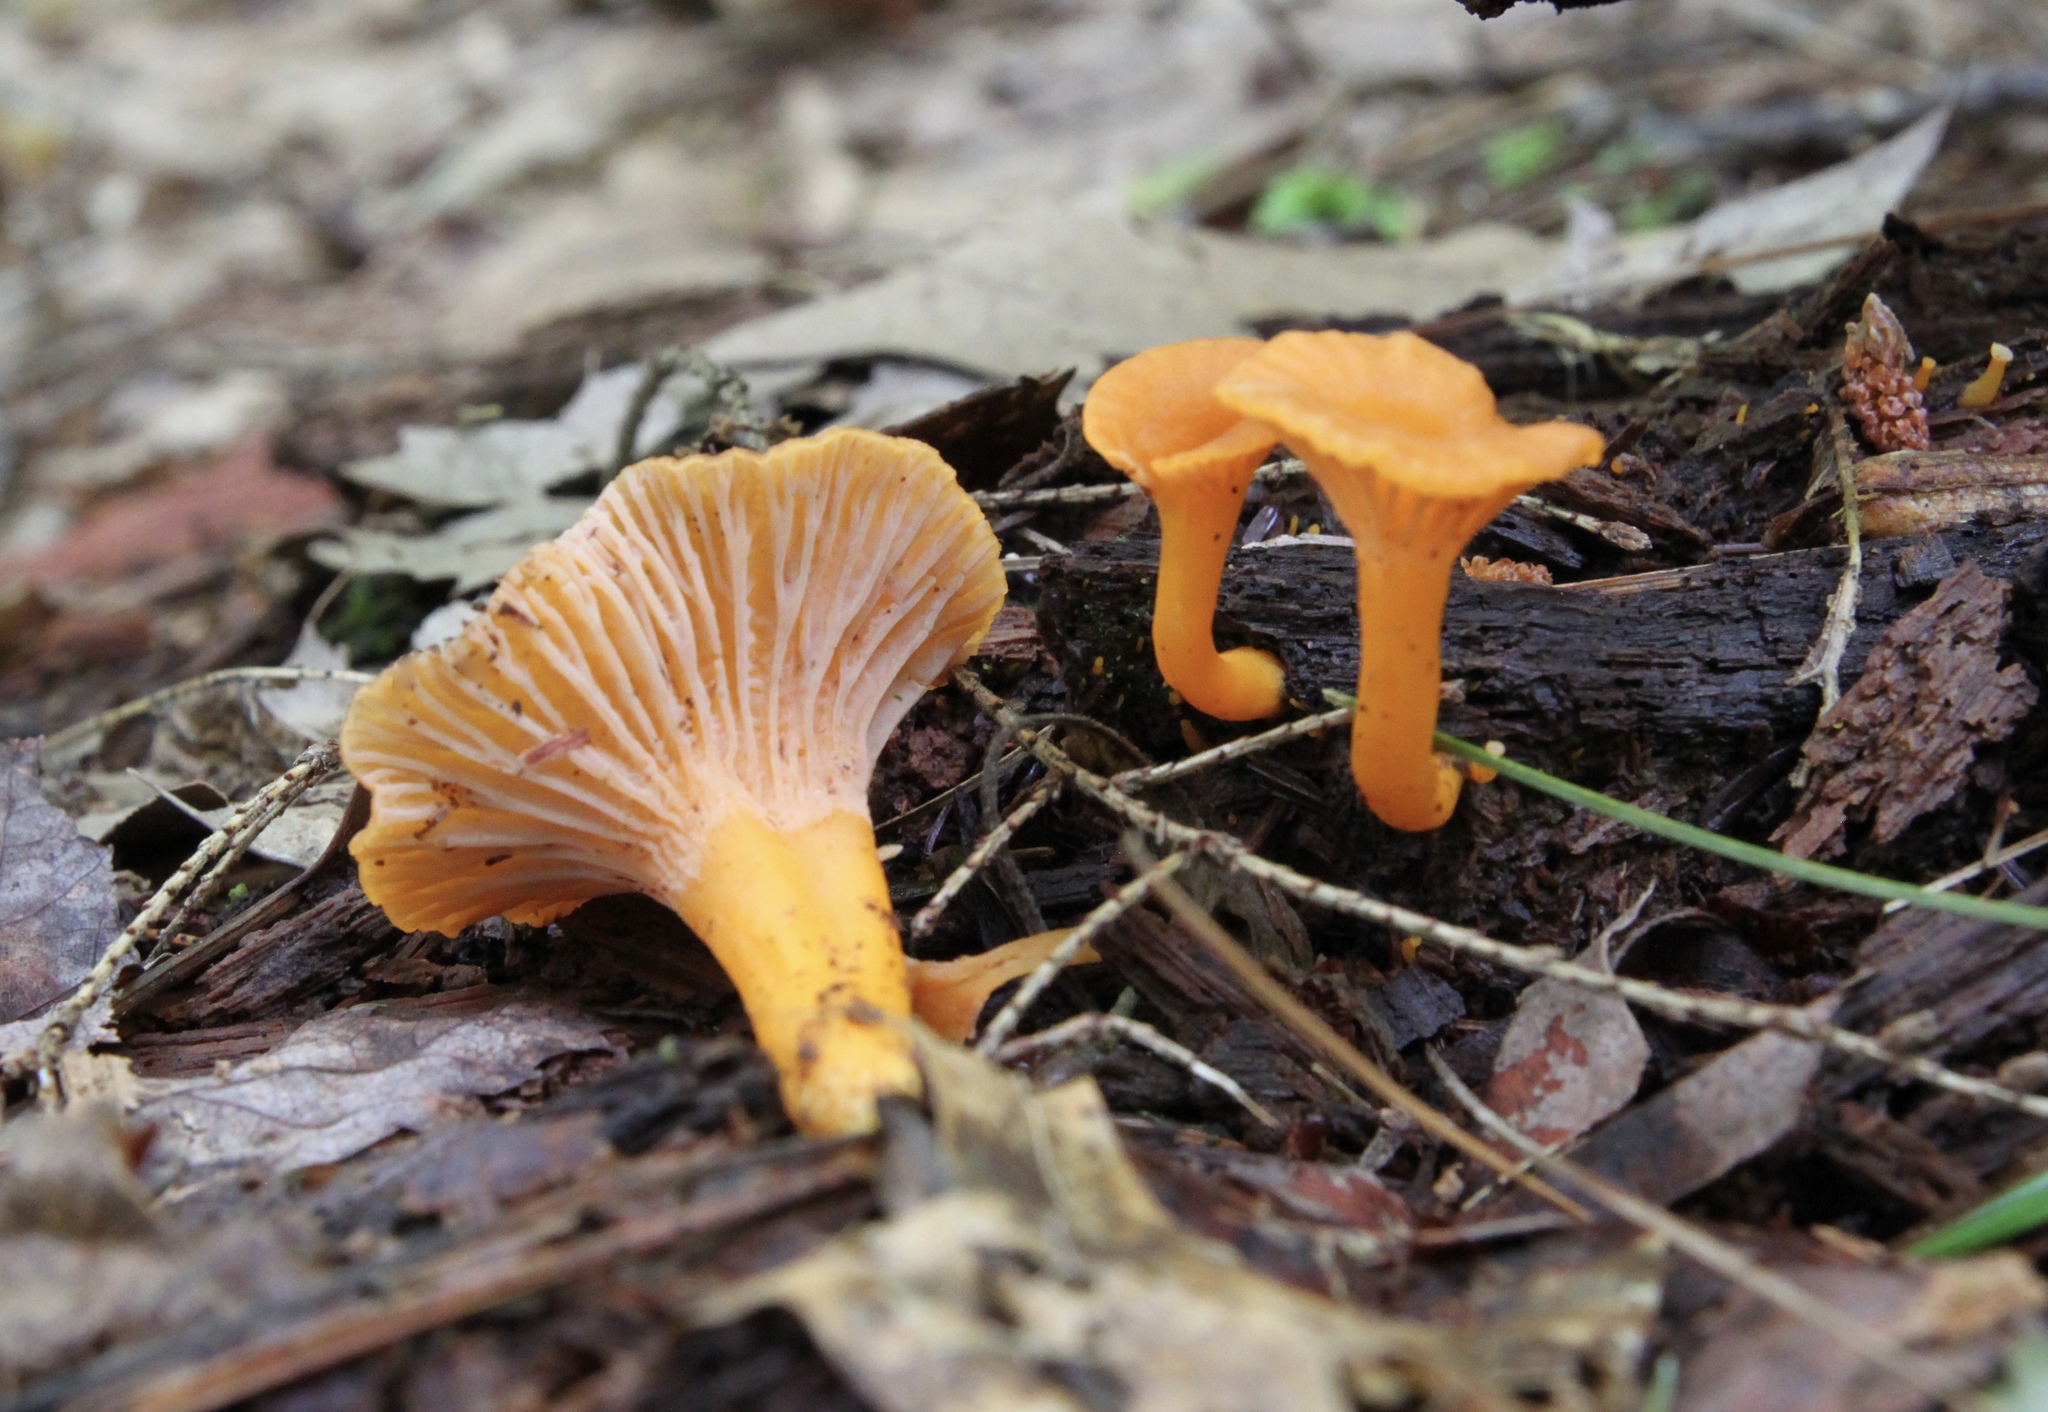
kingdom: Fungi
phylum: Basidiomycota
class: Agaricomycetes
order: Cantharellales
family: Hydnaceae
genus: Craterellus
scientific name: Craterellus ignicolor
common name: Flame chanterelle
